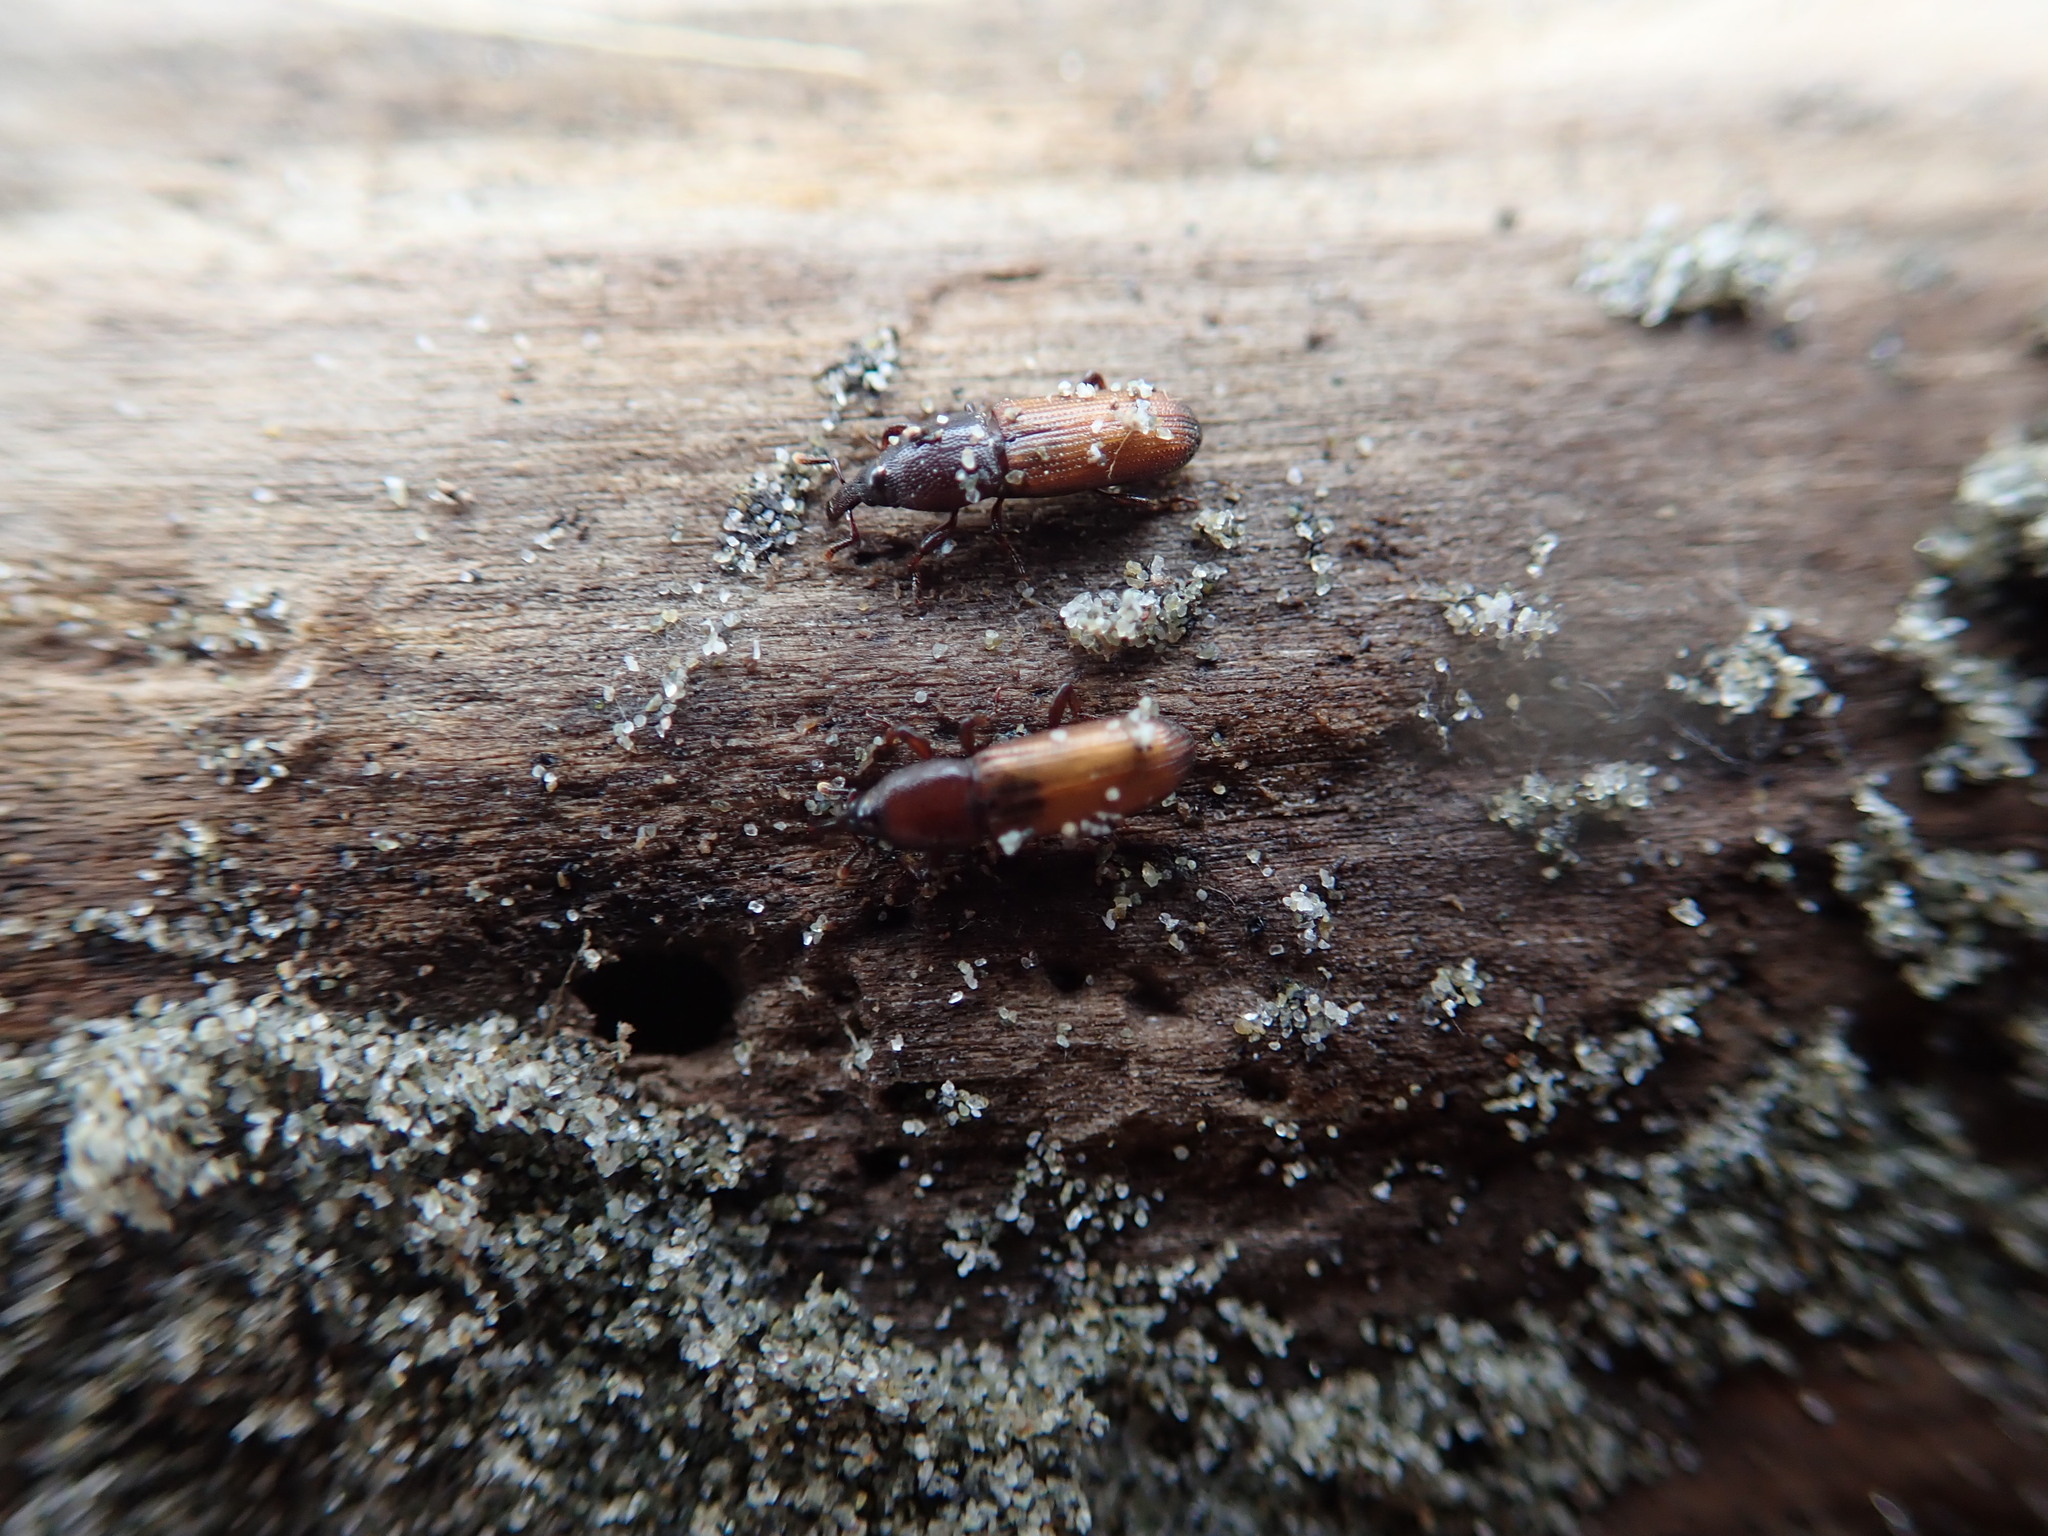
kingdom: Animalia
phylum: Arthropoda
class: Insecta
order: Coleoptera
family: Curculionidae
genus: Mesites
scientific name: Mesites pallidipennis
